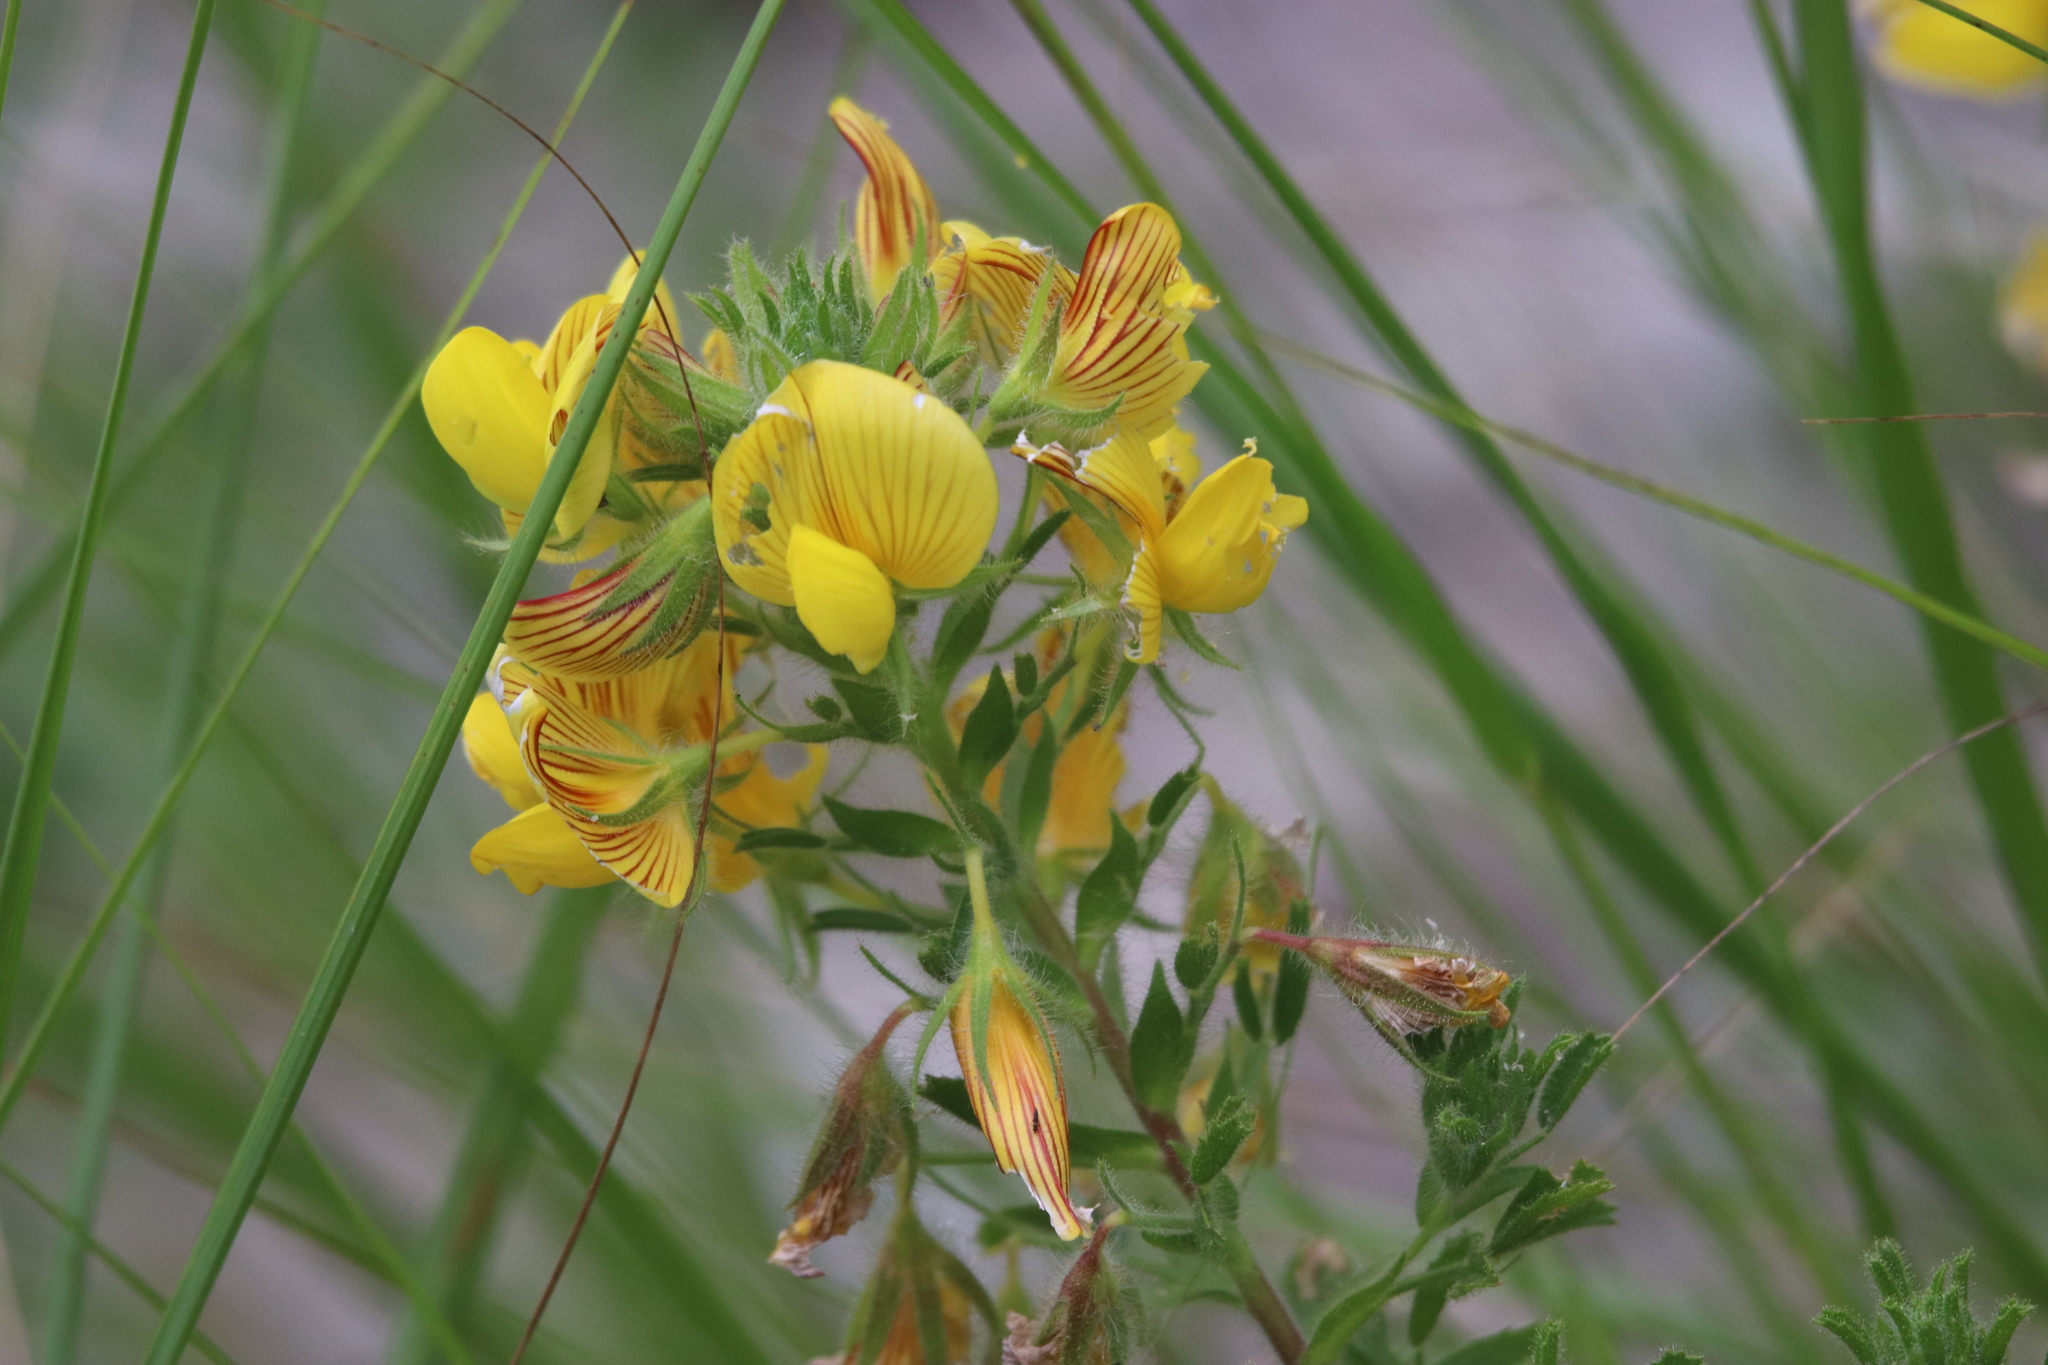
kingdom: Plantae
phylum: Tracheophyta
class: Magnoliopsida
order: Fabales
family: Fabaceae
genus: Ononis
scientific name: Ononis natrix
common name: Yellow restharrow
